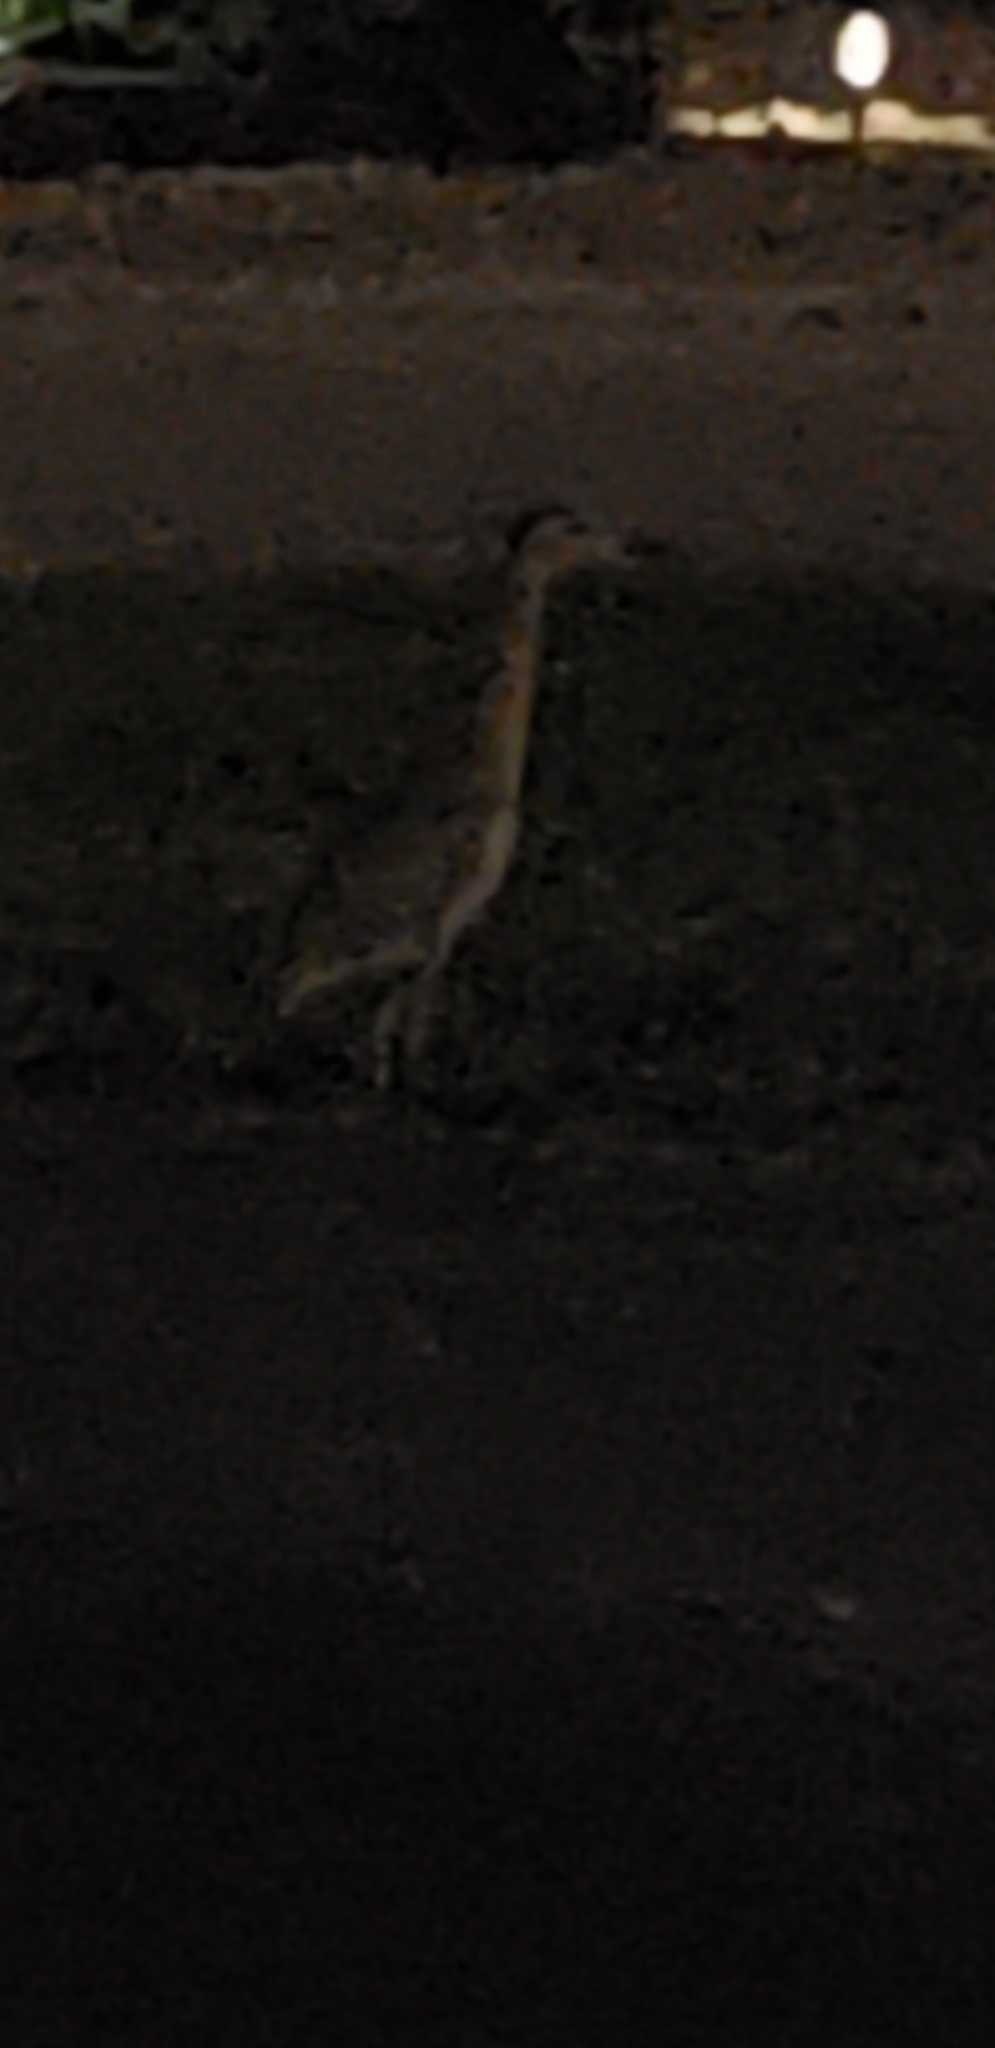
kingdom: Animalia
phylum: Chordata
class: Aves
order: Pelecaniformes
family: Ardeidae
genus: Nyctanassa
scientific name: Nyctanassa violacea
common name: Yellow-crowned night heron
